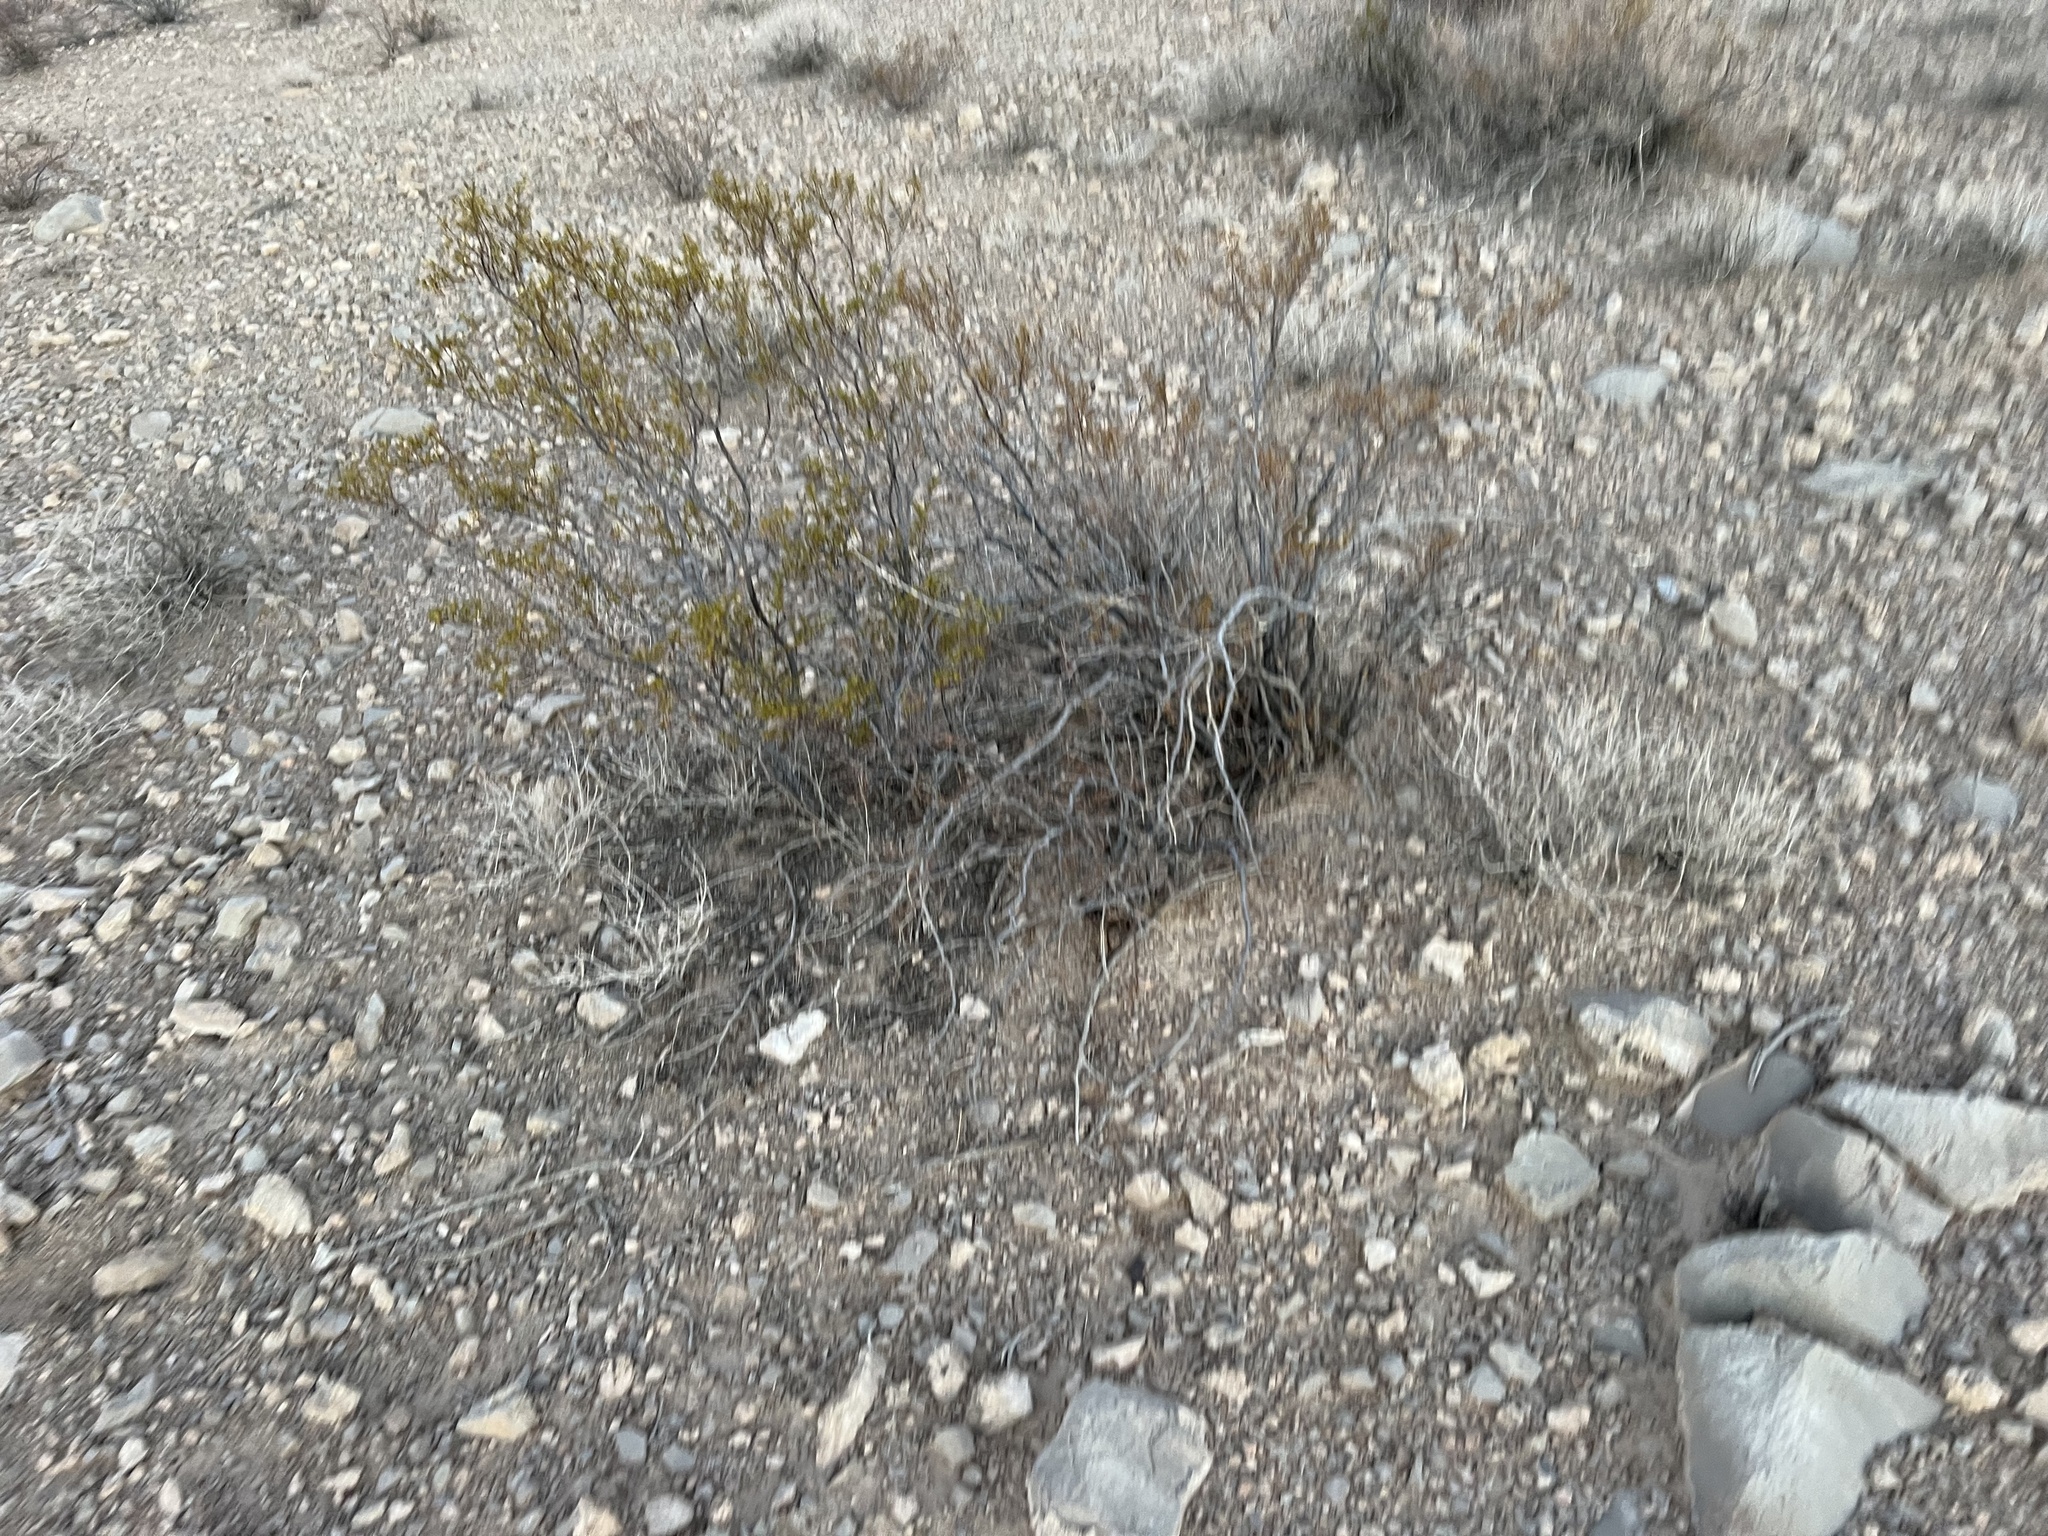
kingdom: Plantae
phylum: Tracheophyta
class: Magnoliopsida
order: Zygophyllales
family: Zygophyllaceae
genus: Larrea
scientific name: Larrea tridentata
